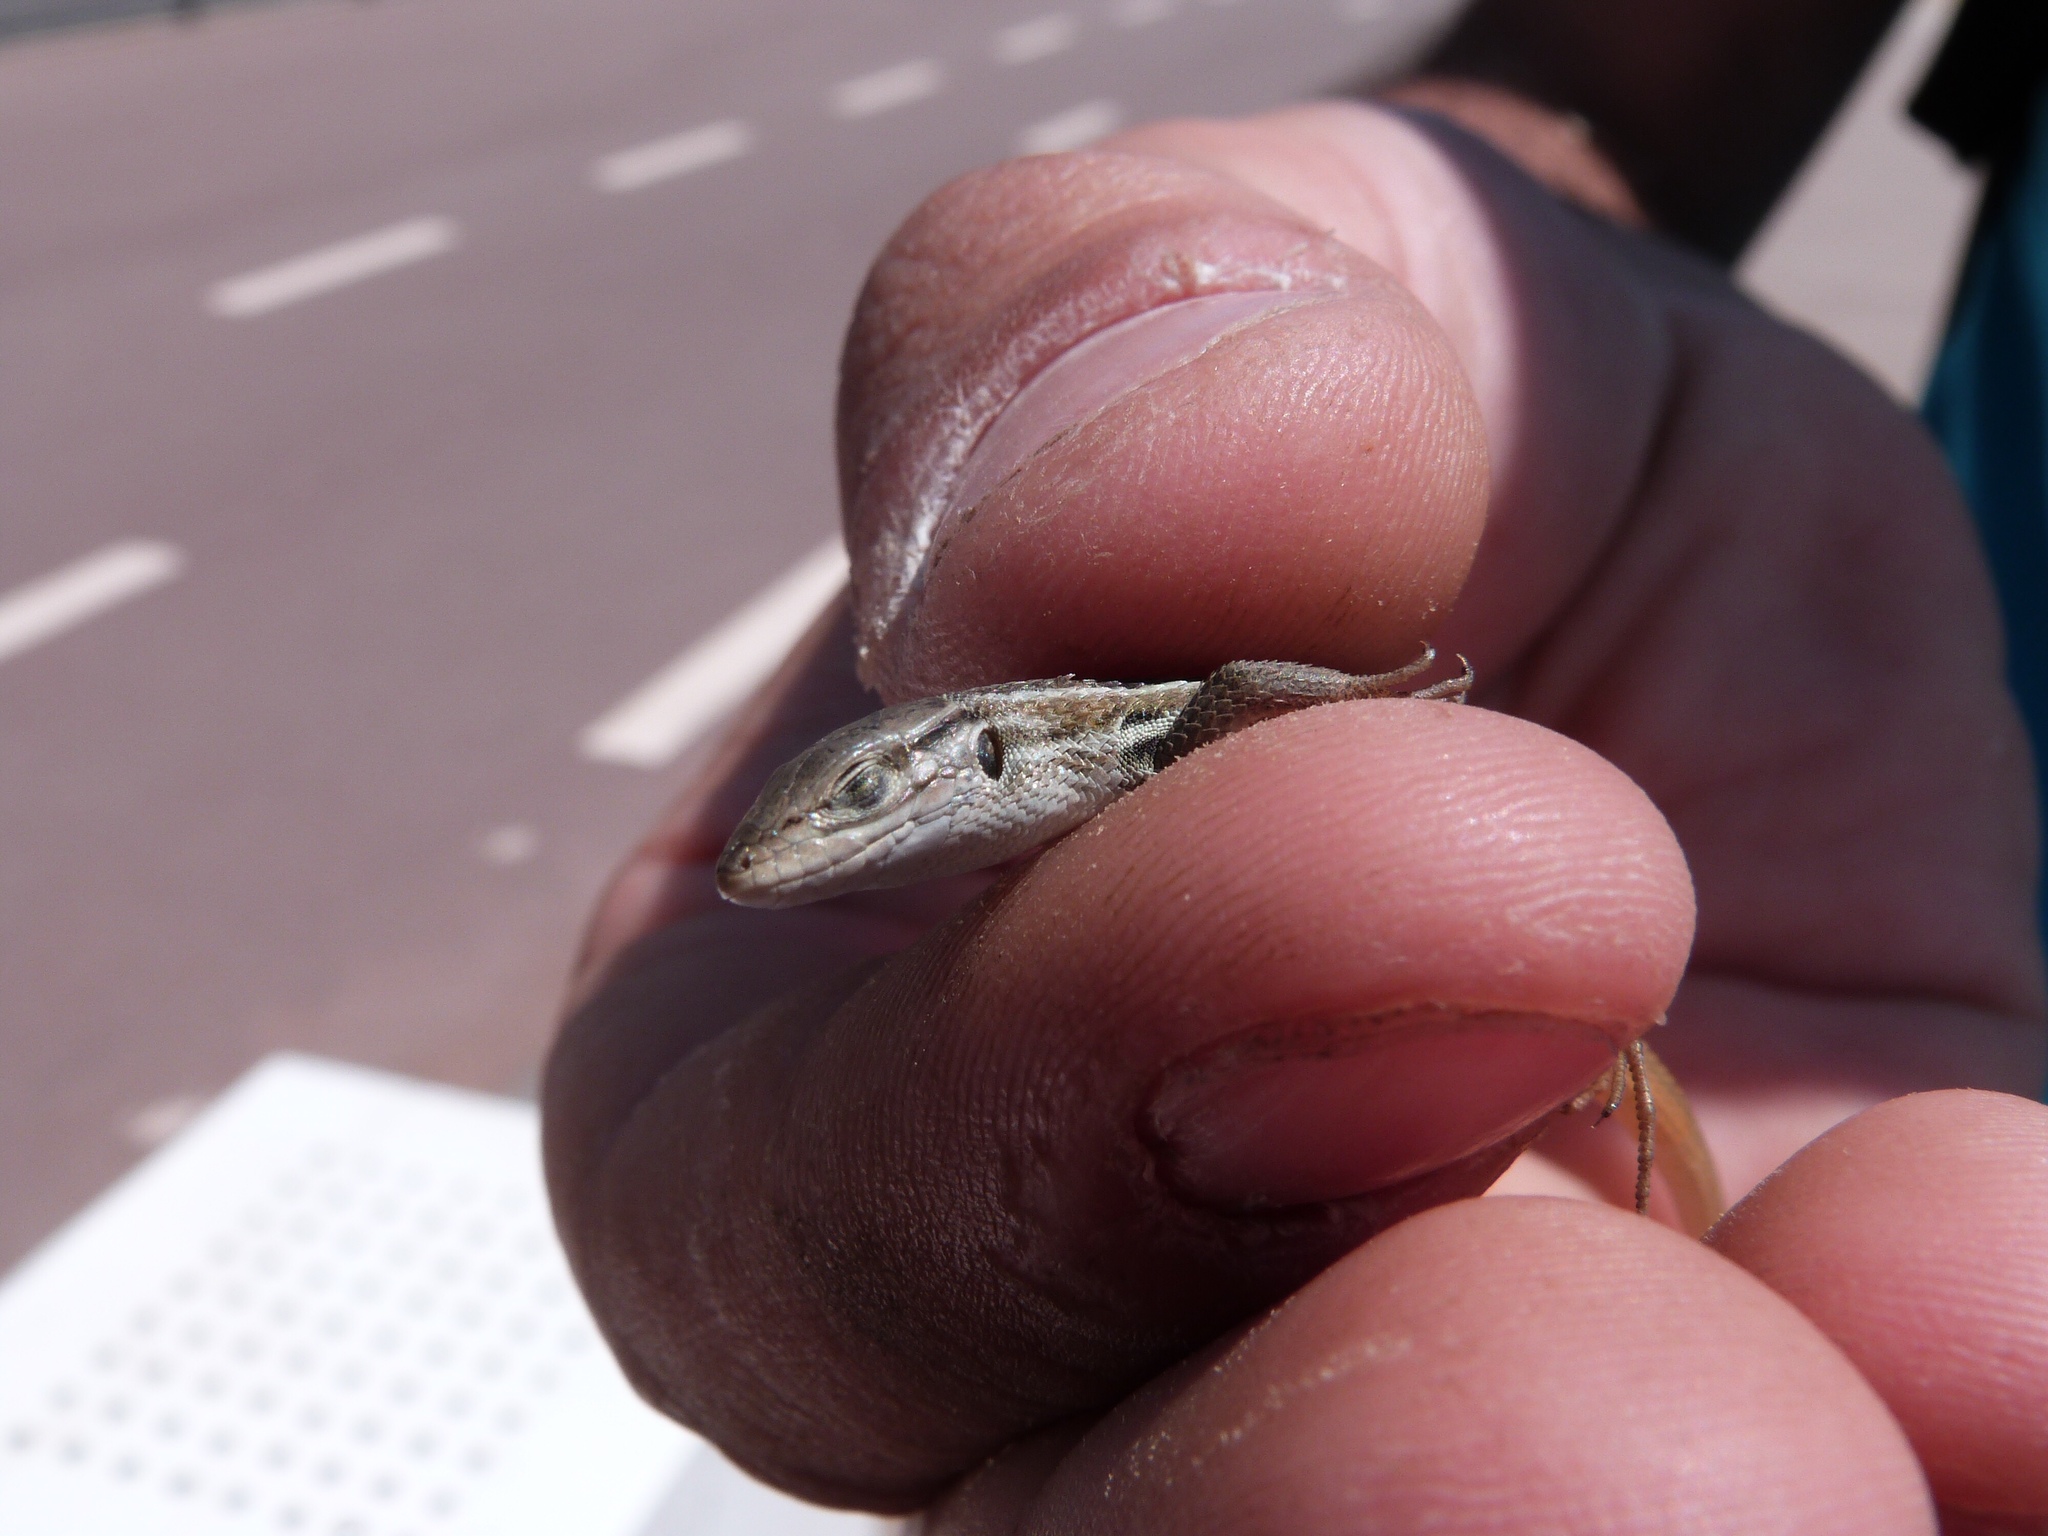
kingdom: Animalia
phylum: Chordata
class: Squamata
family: Lacertidae
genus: Psammodromus
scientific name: Psammodromus algirus
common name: Algerian psammodromus
